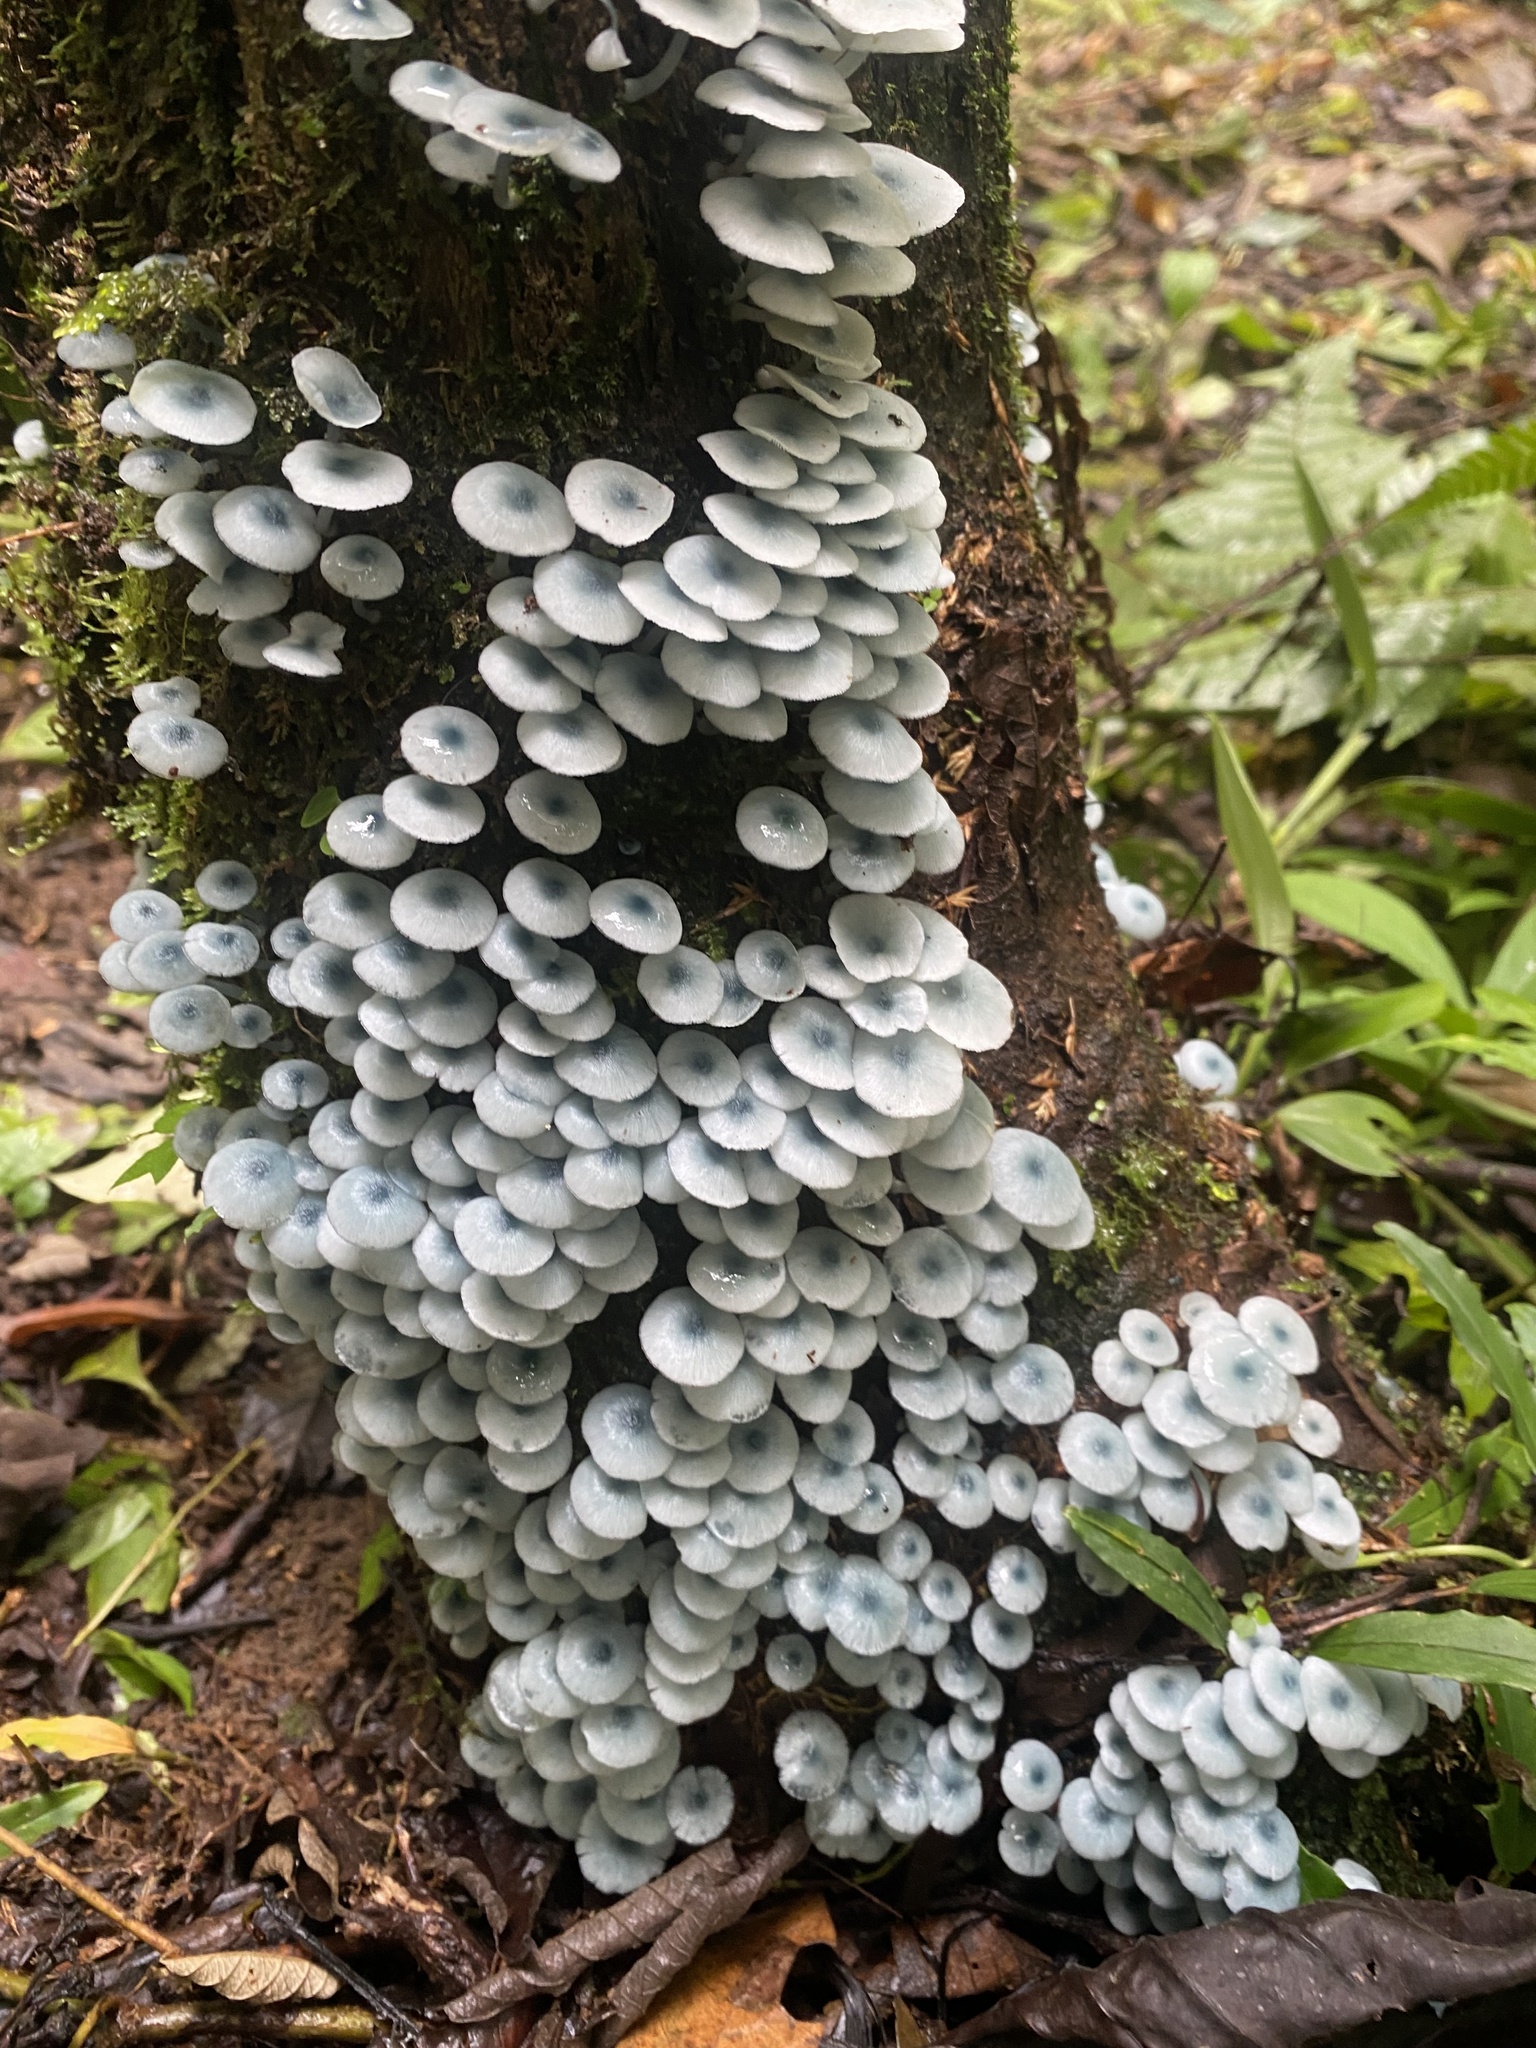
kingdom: Fungi
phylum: Basidiomycota
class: Agaricomycetes
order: Agaricales
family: Marasmiaceae
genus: Clitocybula
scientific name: Clitocybula azurea
